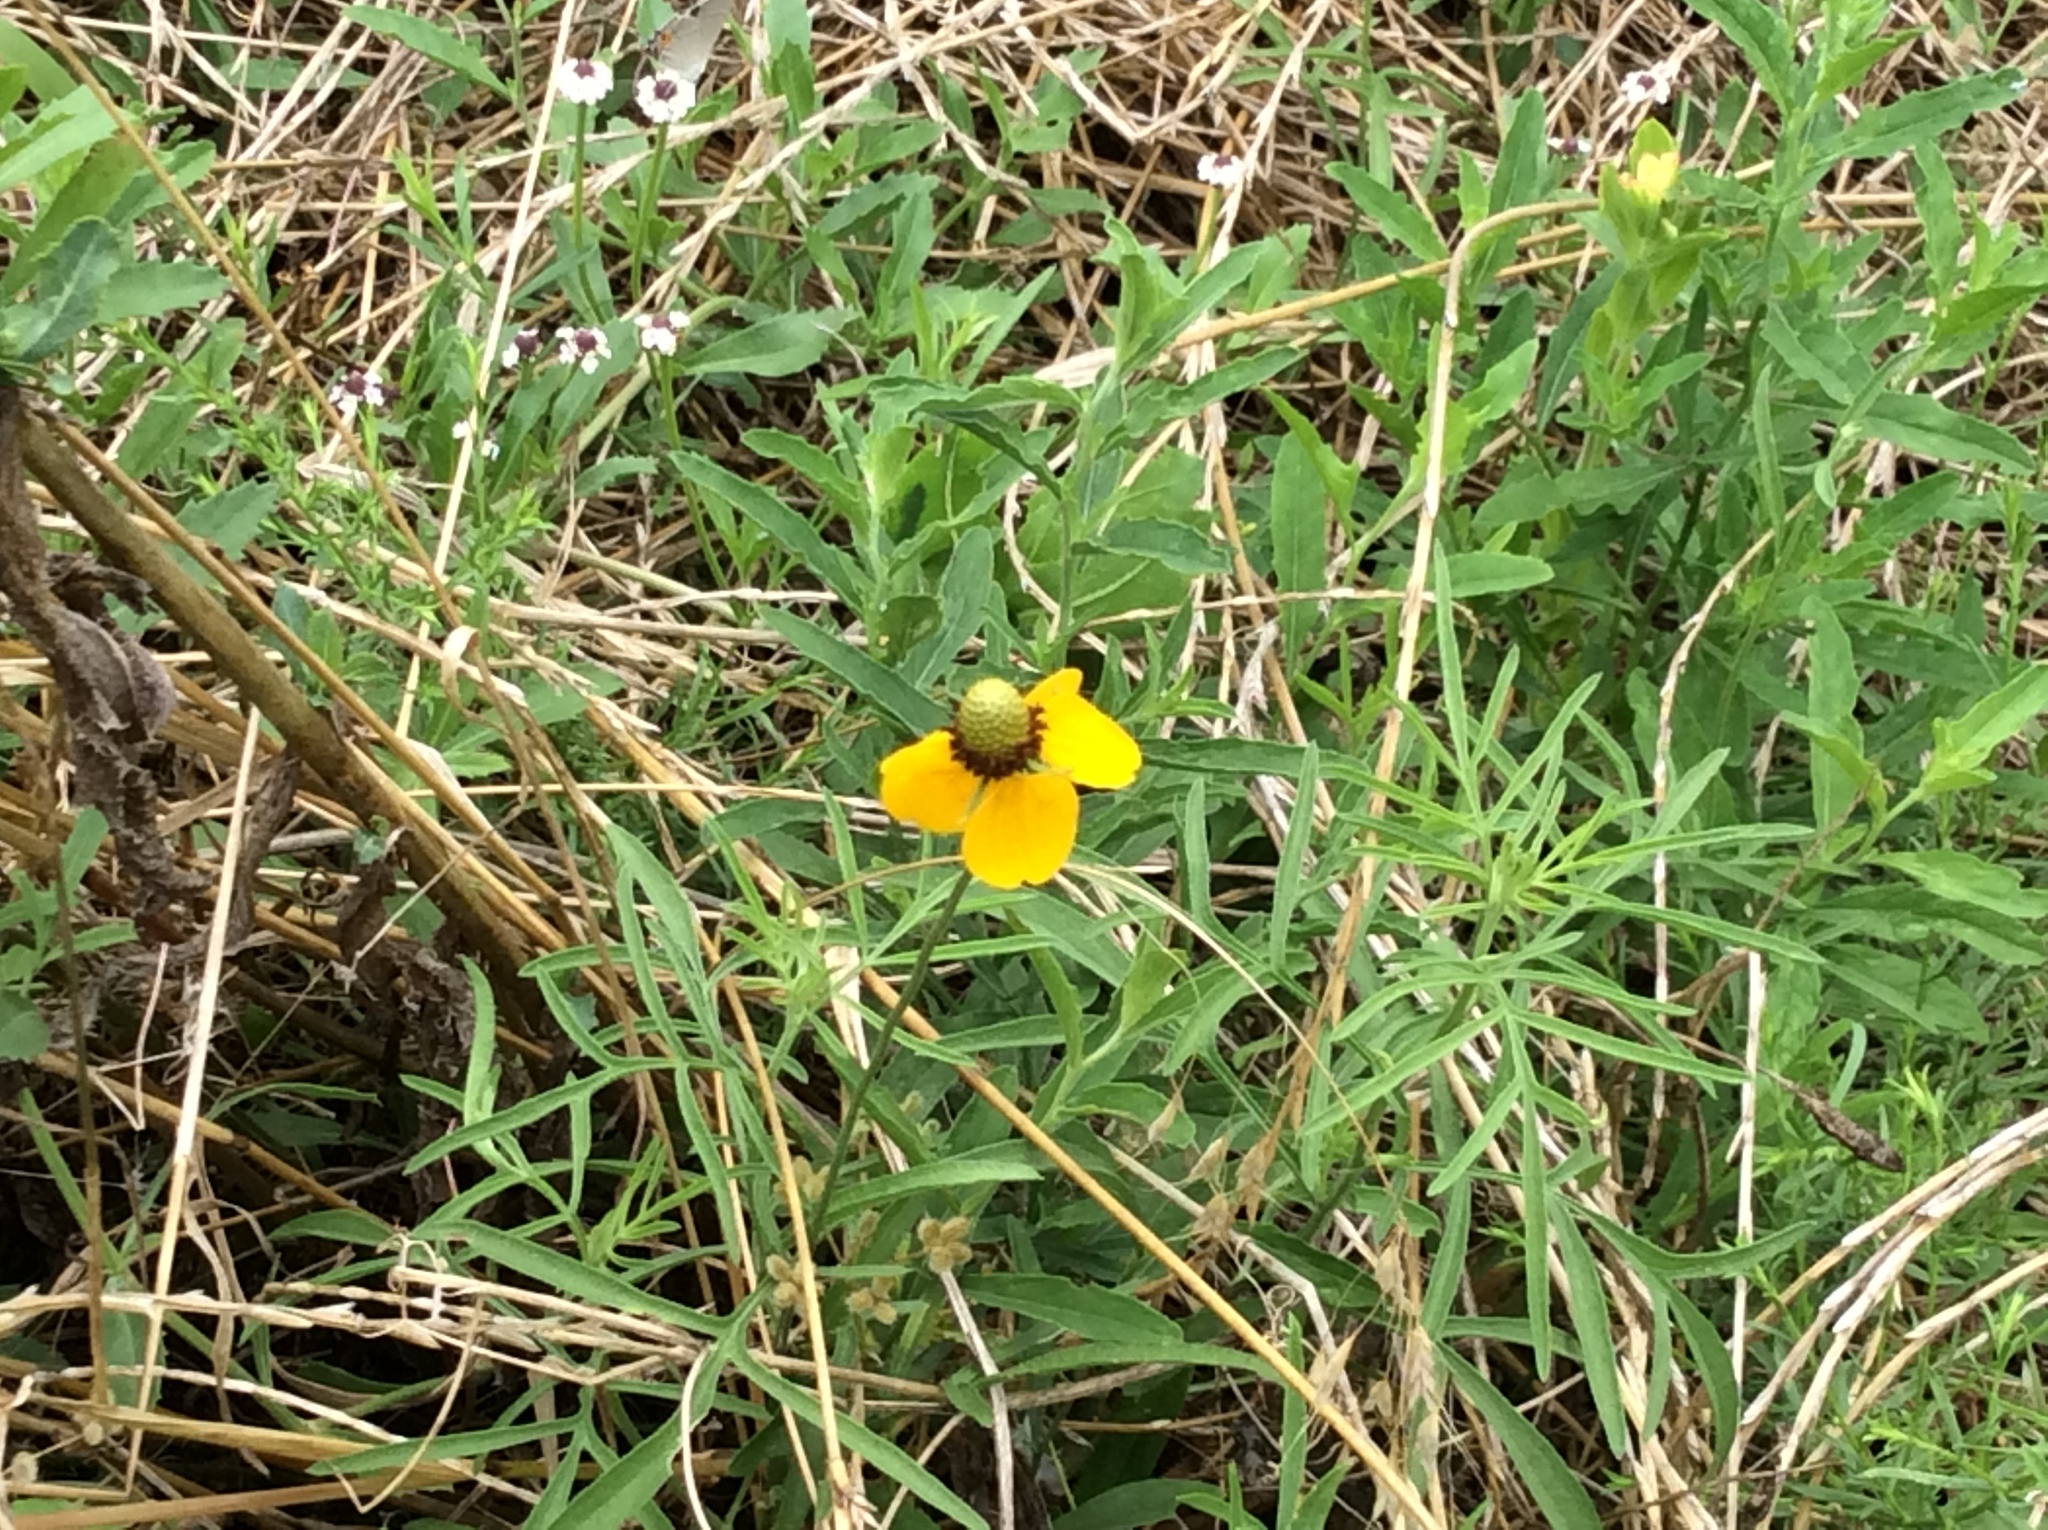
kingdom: Plantae
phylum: Tracheophyta
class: Magnoliopsida
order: Asterales
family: Asteraceae
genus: Ratibida
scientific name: Ratibida columnifera
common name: Prairie coneflower
